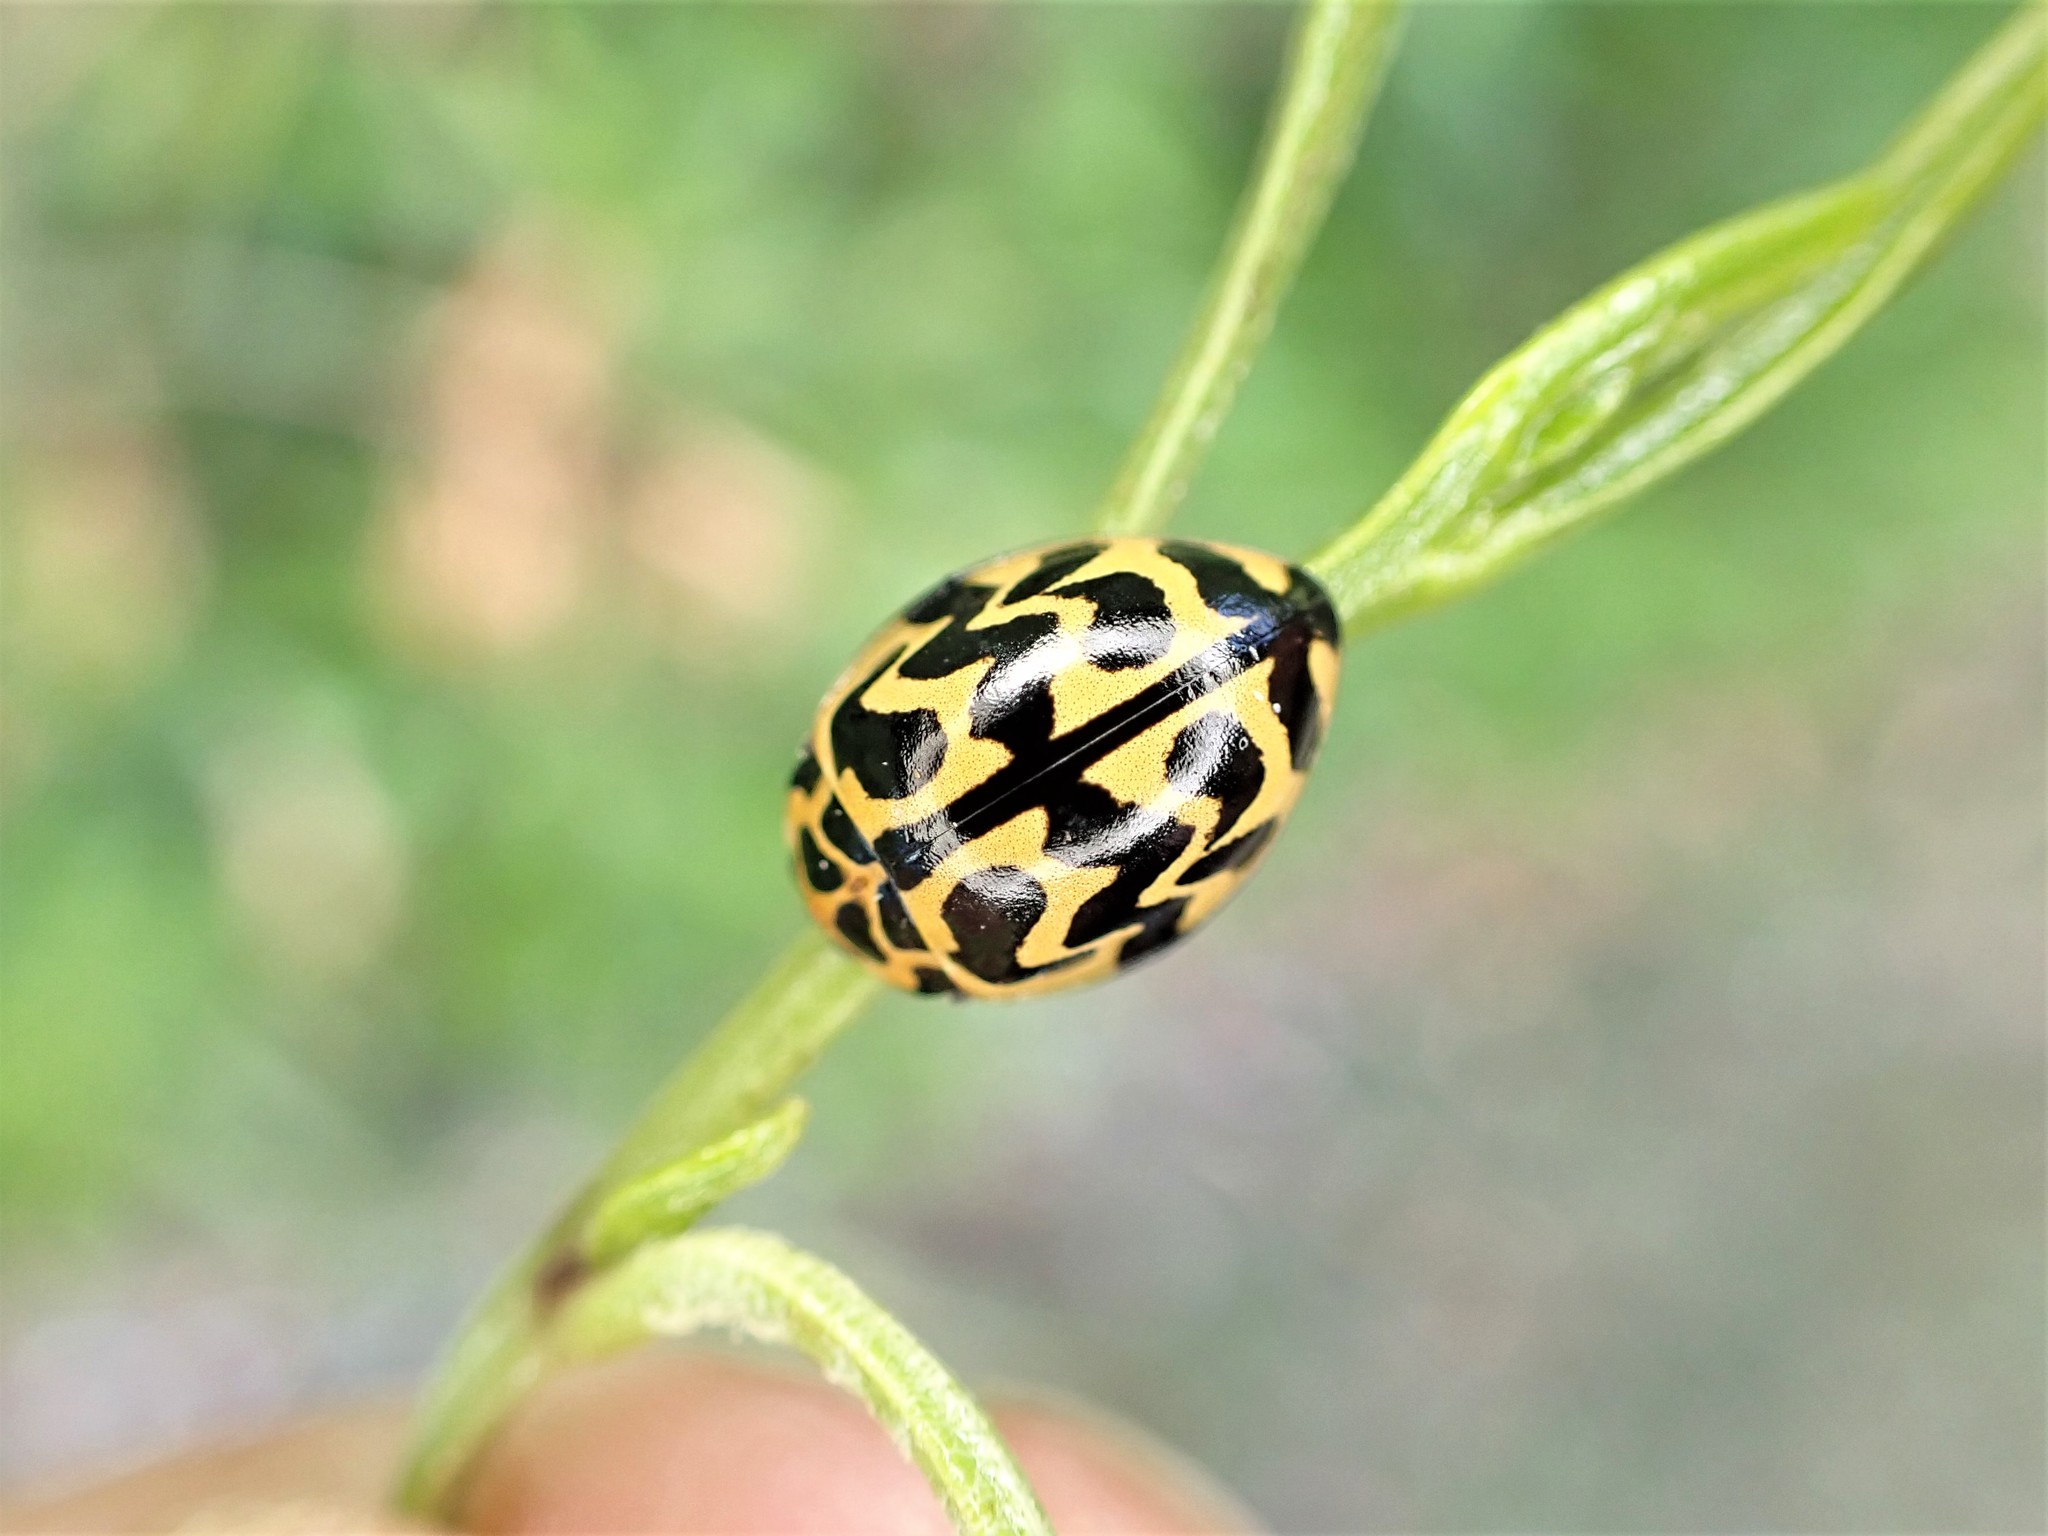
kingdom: Animalia
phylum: Arthropoda
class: Insecta
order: Coleoptera
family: Coccinellidae
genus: Cleobora
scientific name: Cleobora
